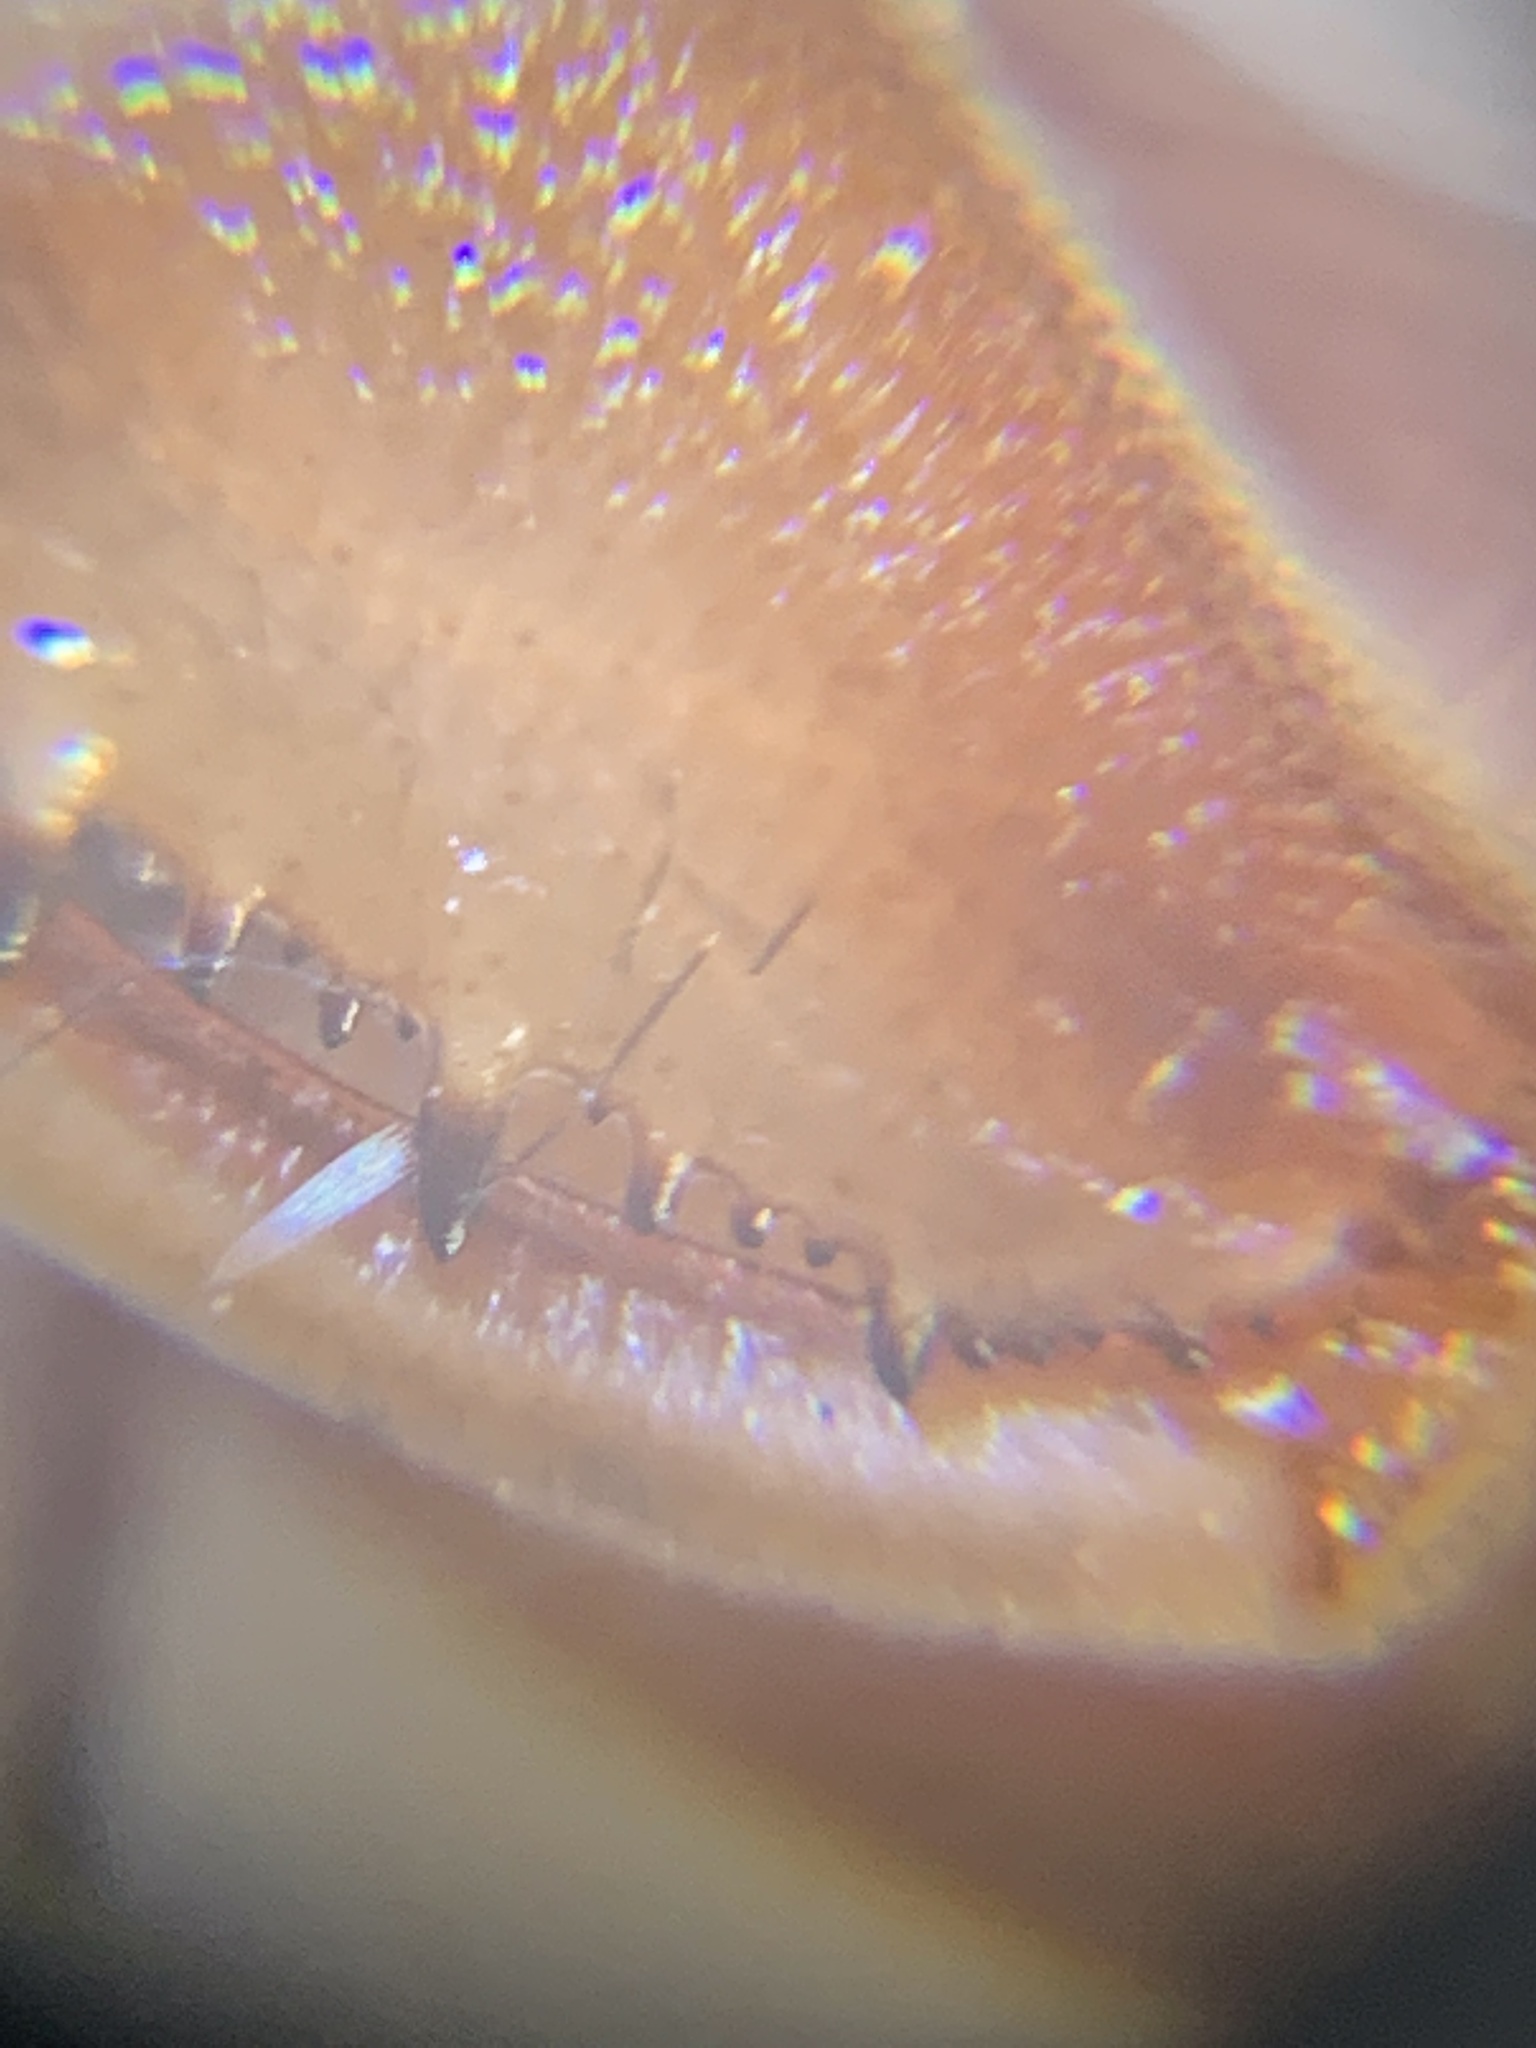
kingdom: Animalia
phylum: Arthropoda
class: Insecta
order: Neuroptera
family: Mantispidae
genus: Dicromantispa
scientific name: Dicromantispa interrupta
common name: Four-spotted mantidfly
